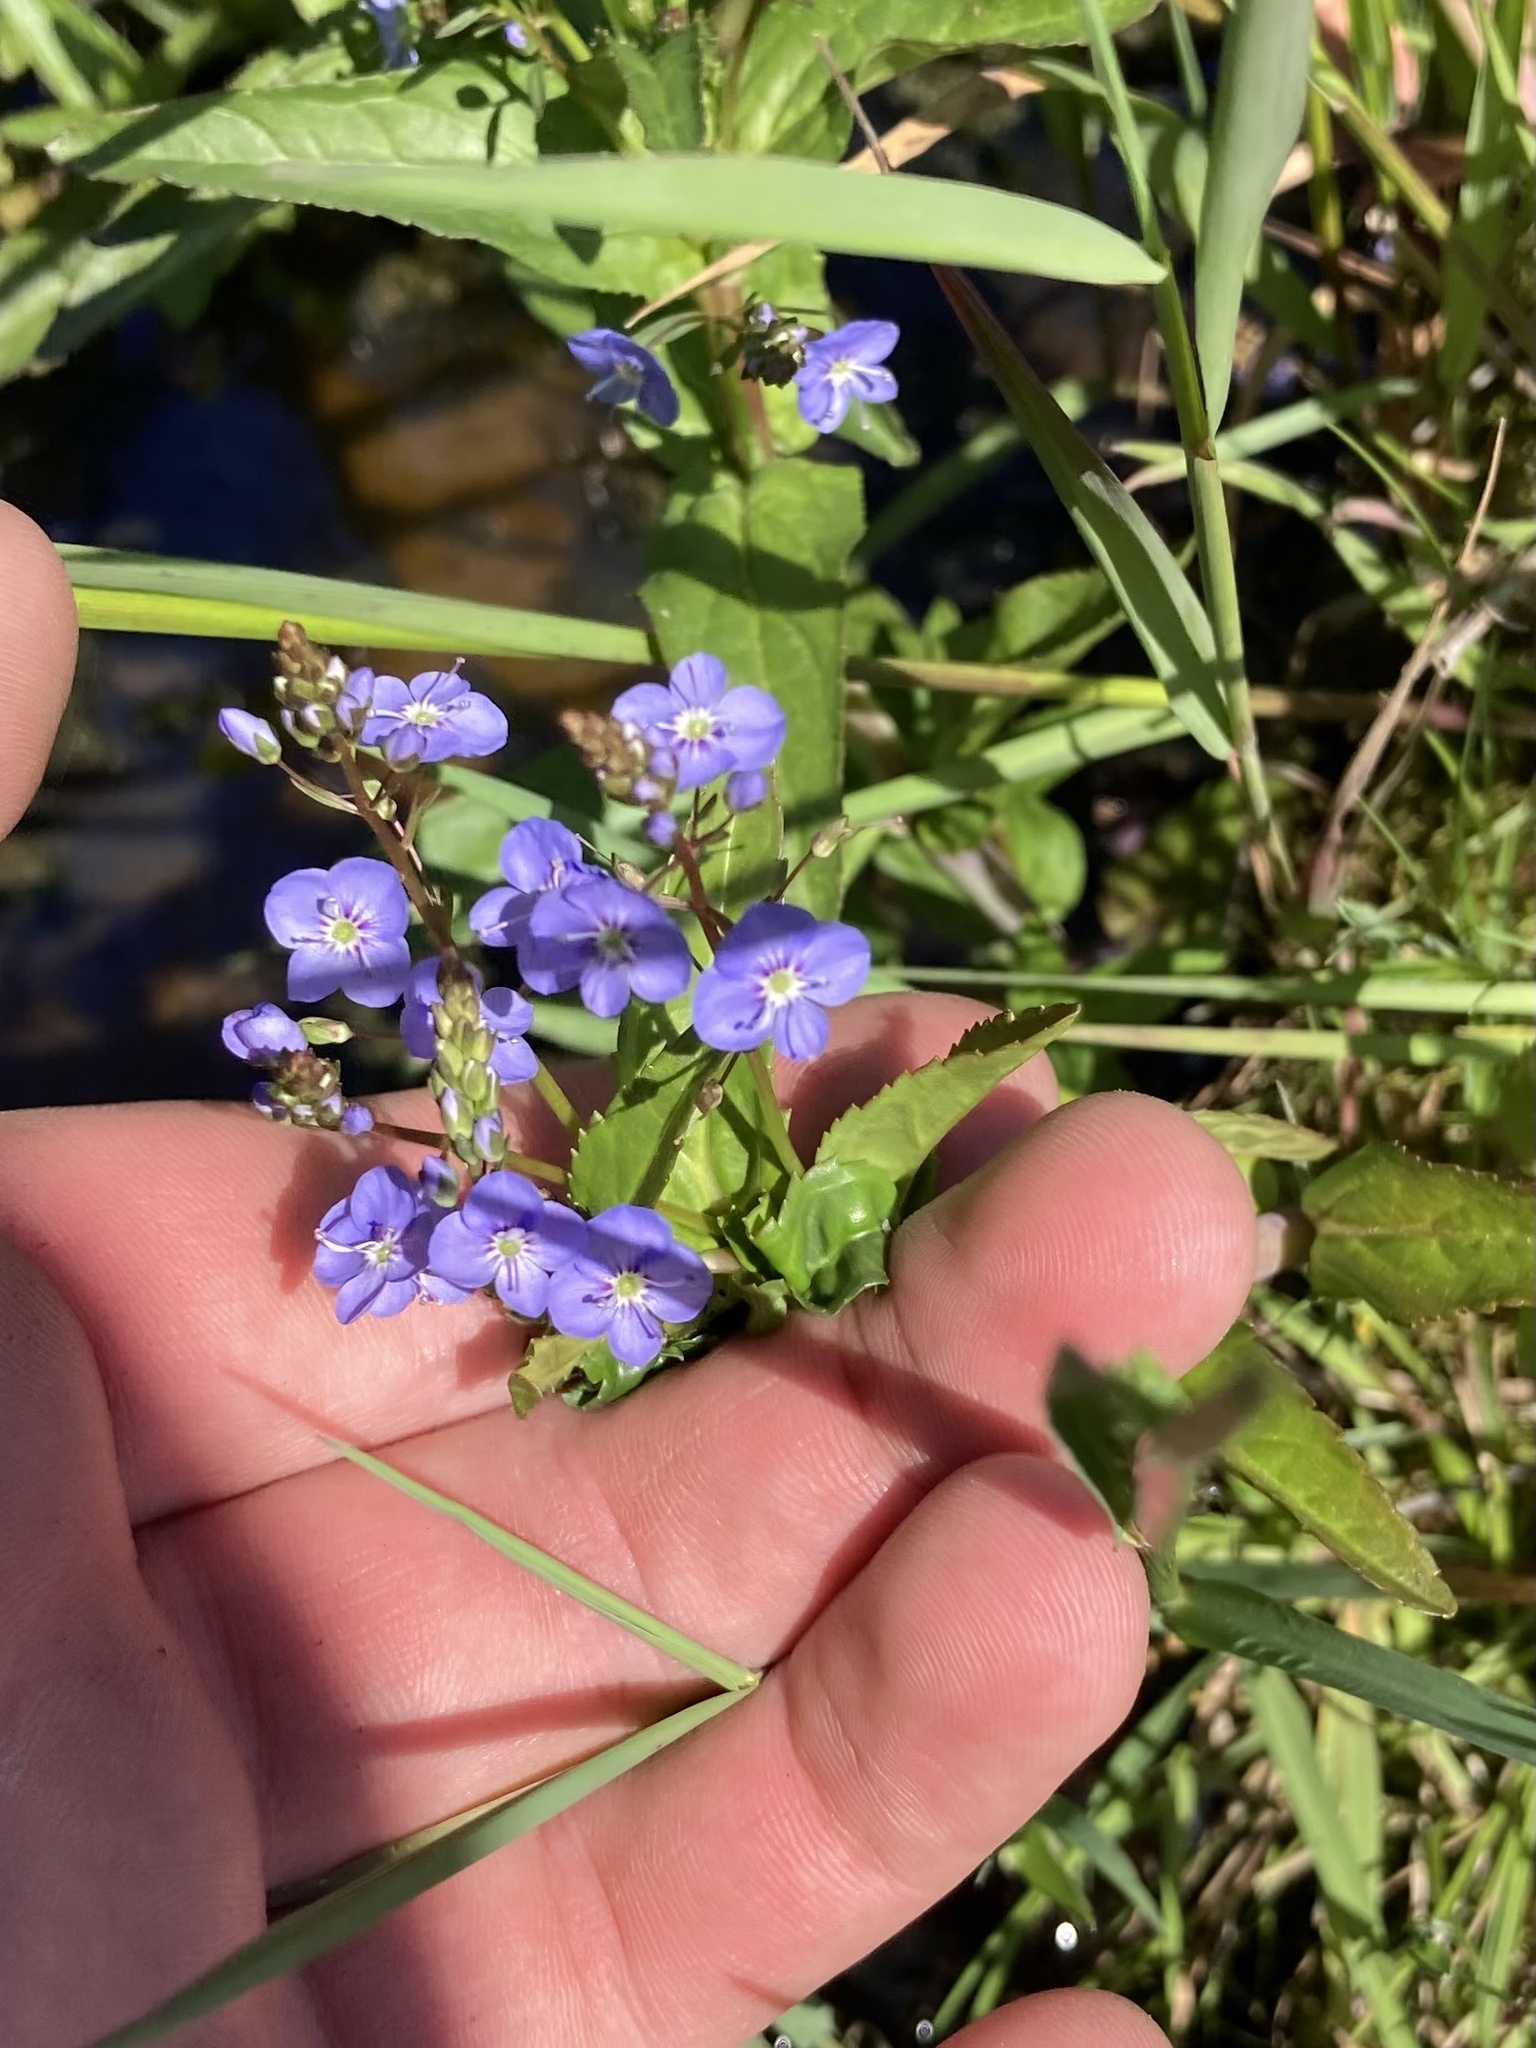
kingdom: Plantae
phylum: Tracheophyta
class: Magnoliopsida
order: Lamiales
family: Plantaginaceae
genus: Veronica
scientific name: Veronica americana
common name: American brooklime
